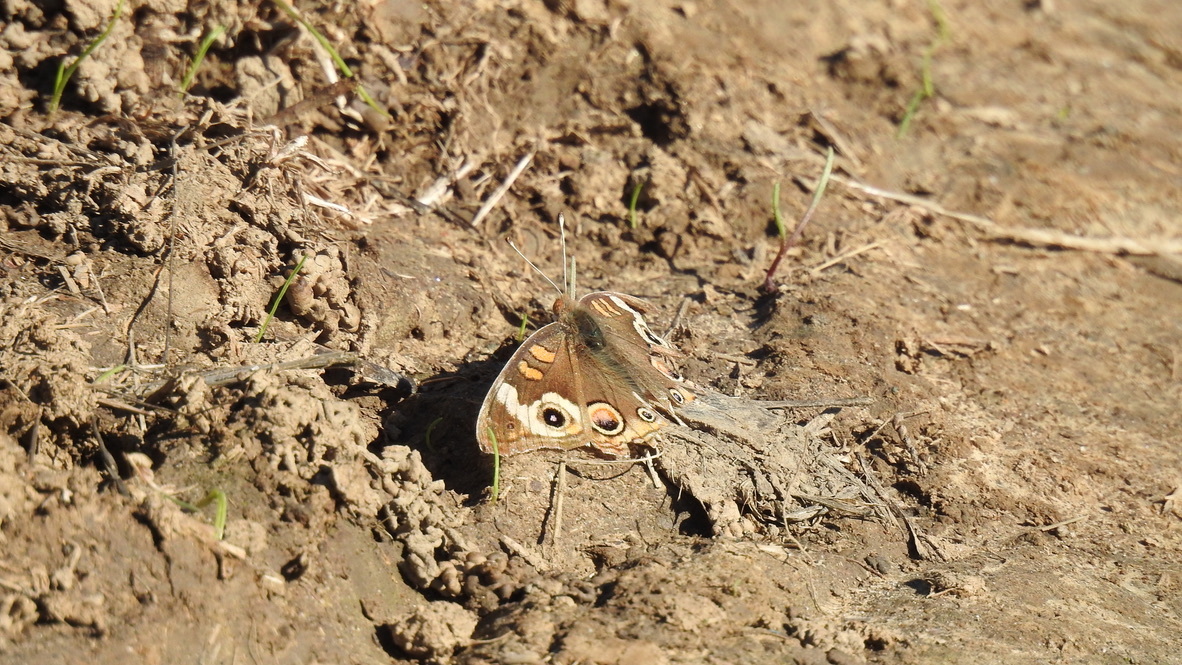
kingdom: Animalia
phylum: Arthropoda
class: Insecta
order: Lepidoptera
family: Nymphalidae
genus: Junonia
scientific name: Junonia grisea
